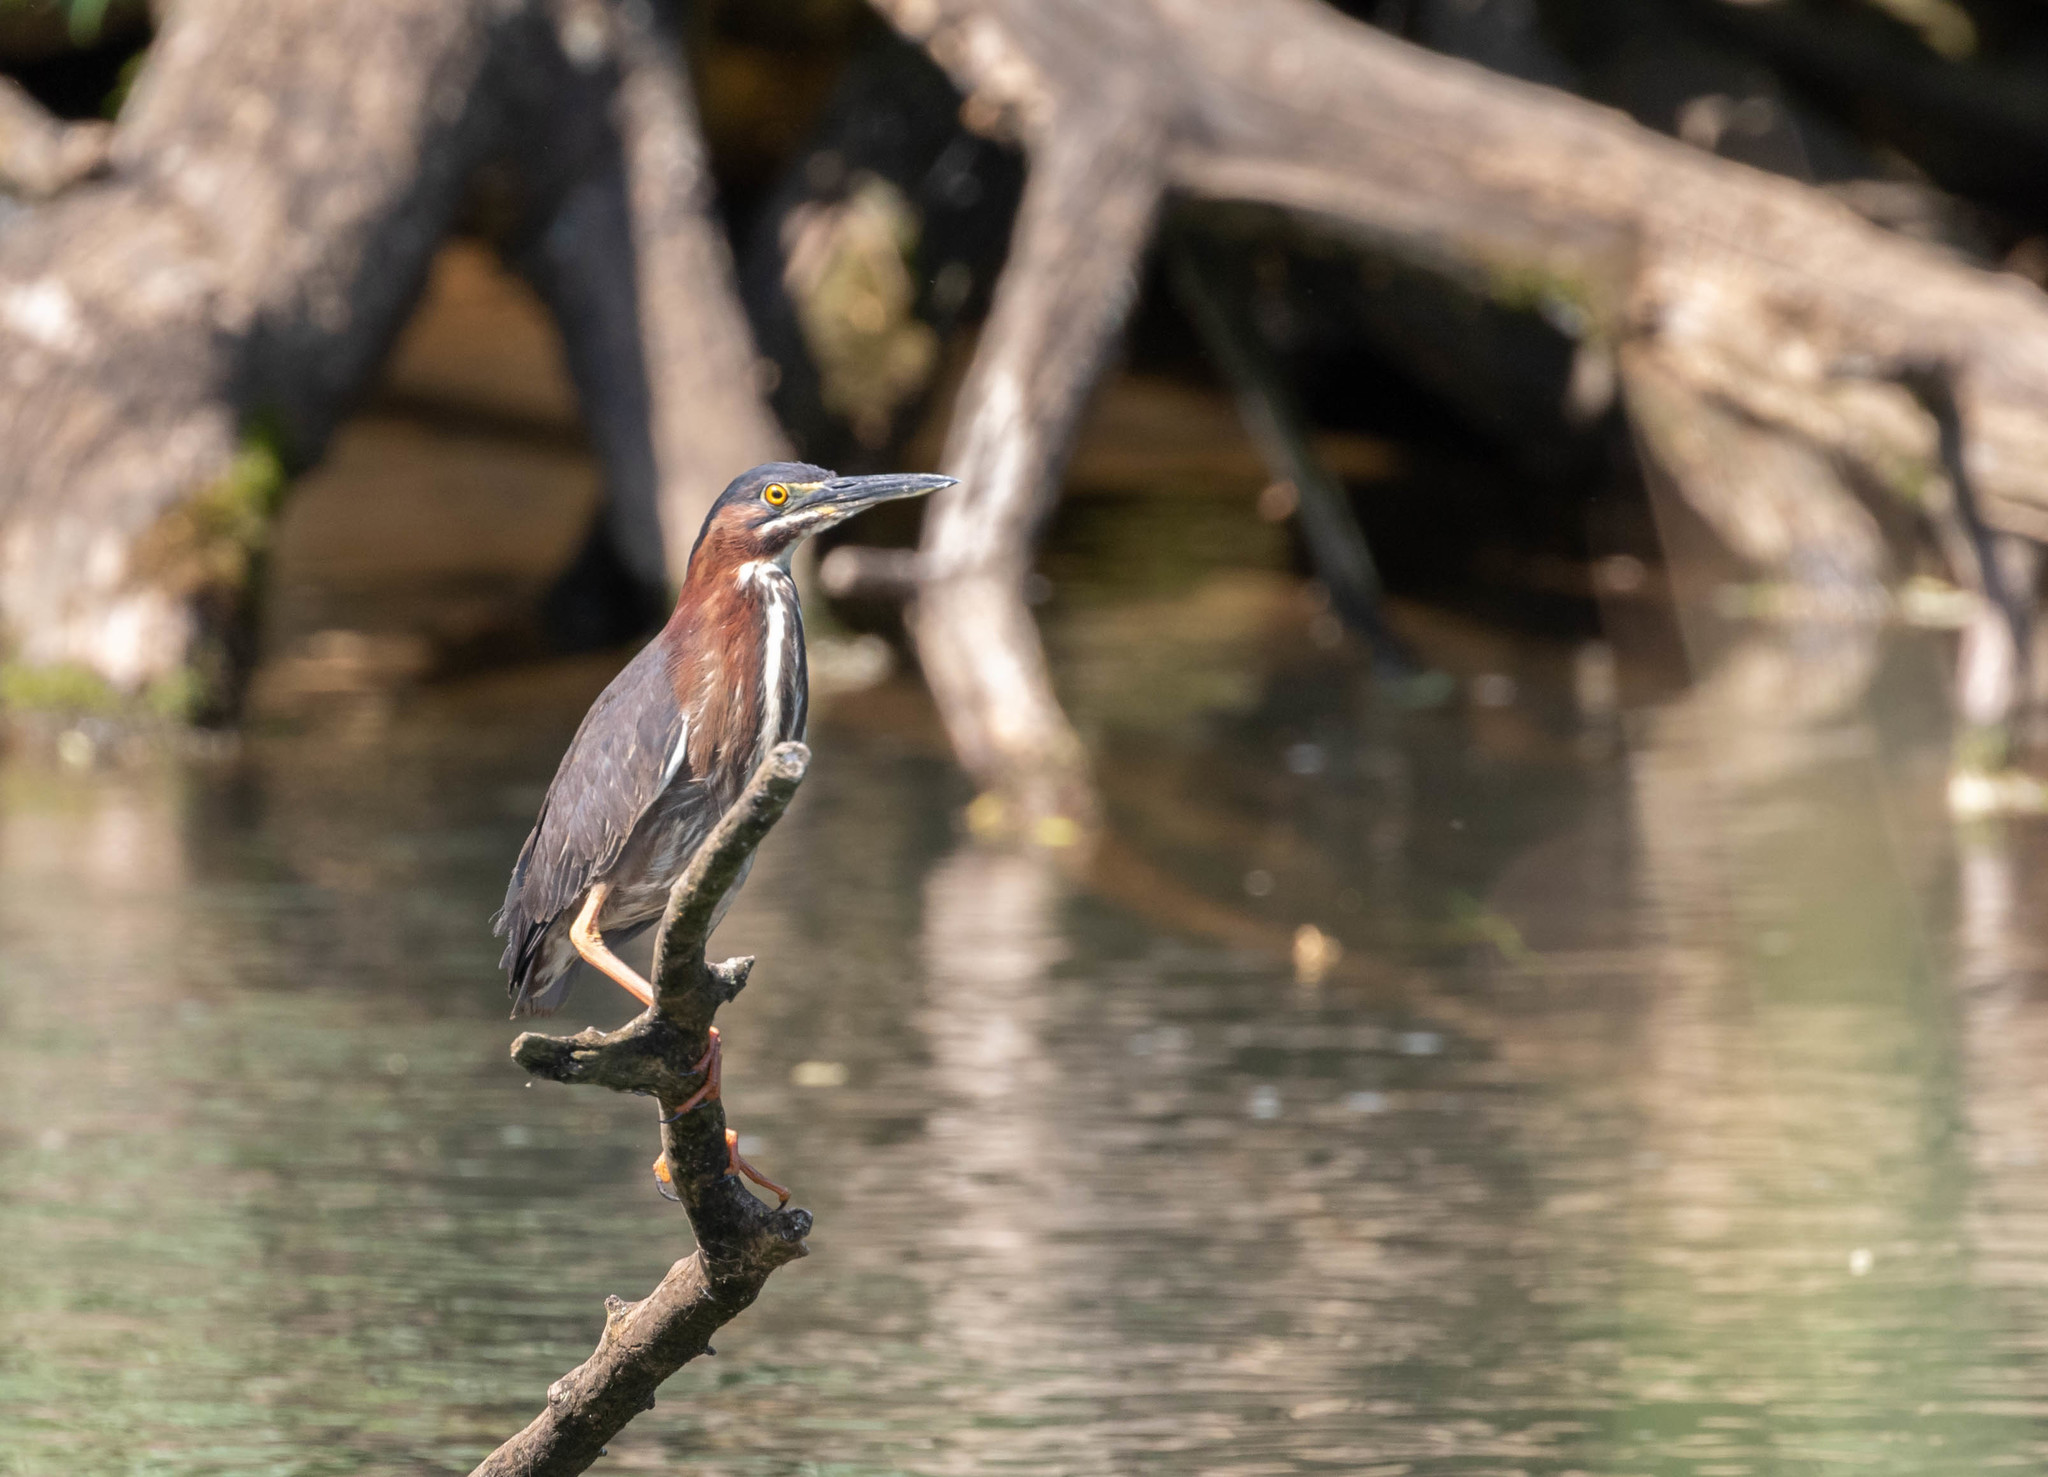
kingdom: Animalia
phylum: Chordata
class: Aves
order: Pelecaniformes
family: Ardeidae
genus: Butorides
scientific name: Butorides virescens
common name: Green heron
